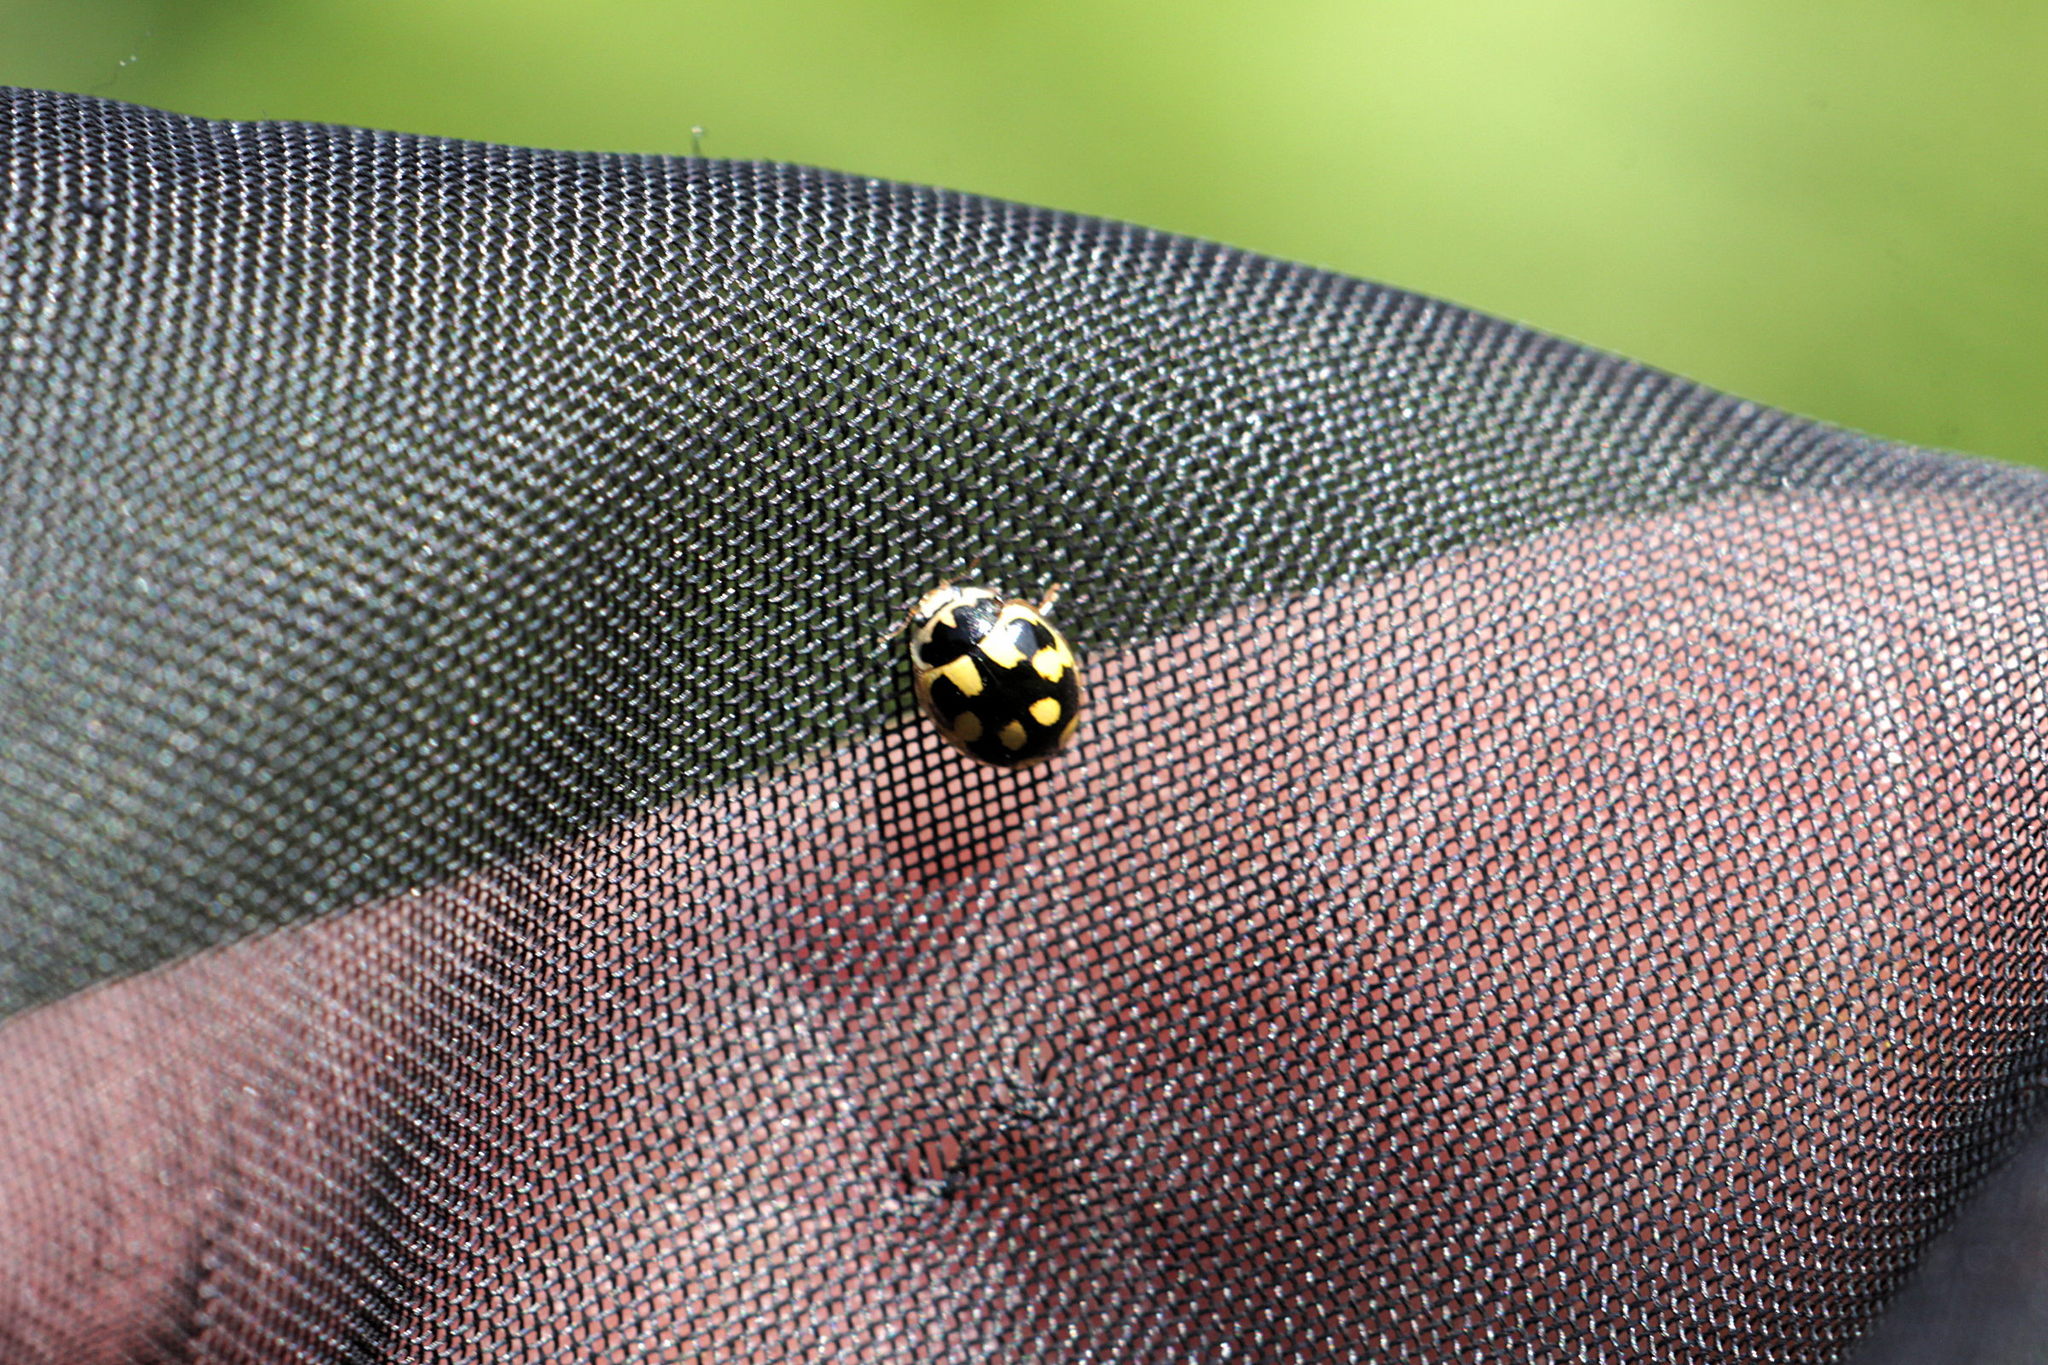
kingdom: Animalia
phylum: Arthropoda
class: Insecta
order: Coleoptera
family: Coccinellidae
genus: Propylaea
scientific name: Propylaea quatuordecimpunctata
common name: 14-spotted ladybird beetle
